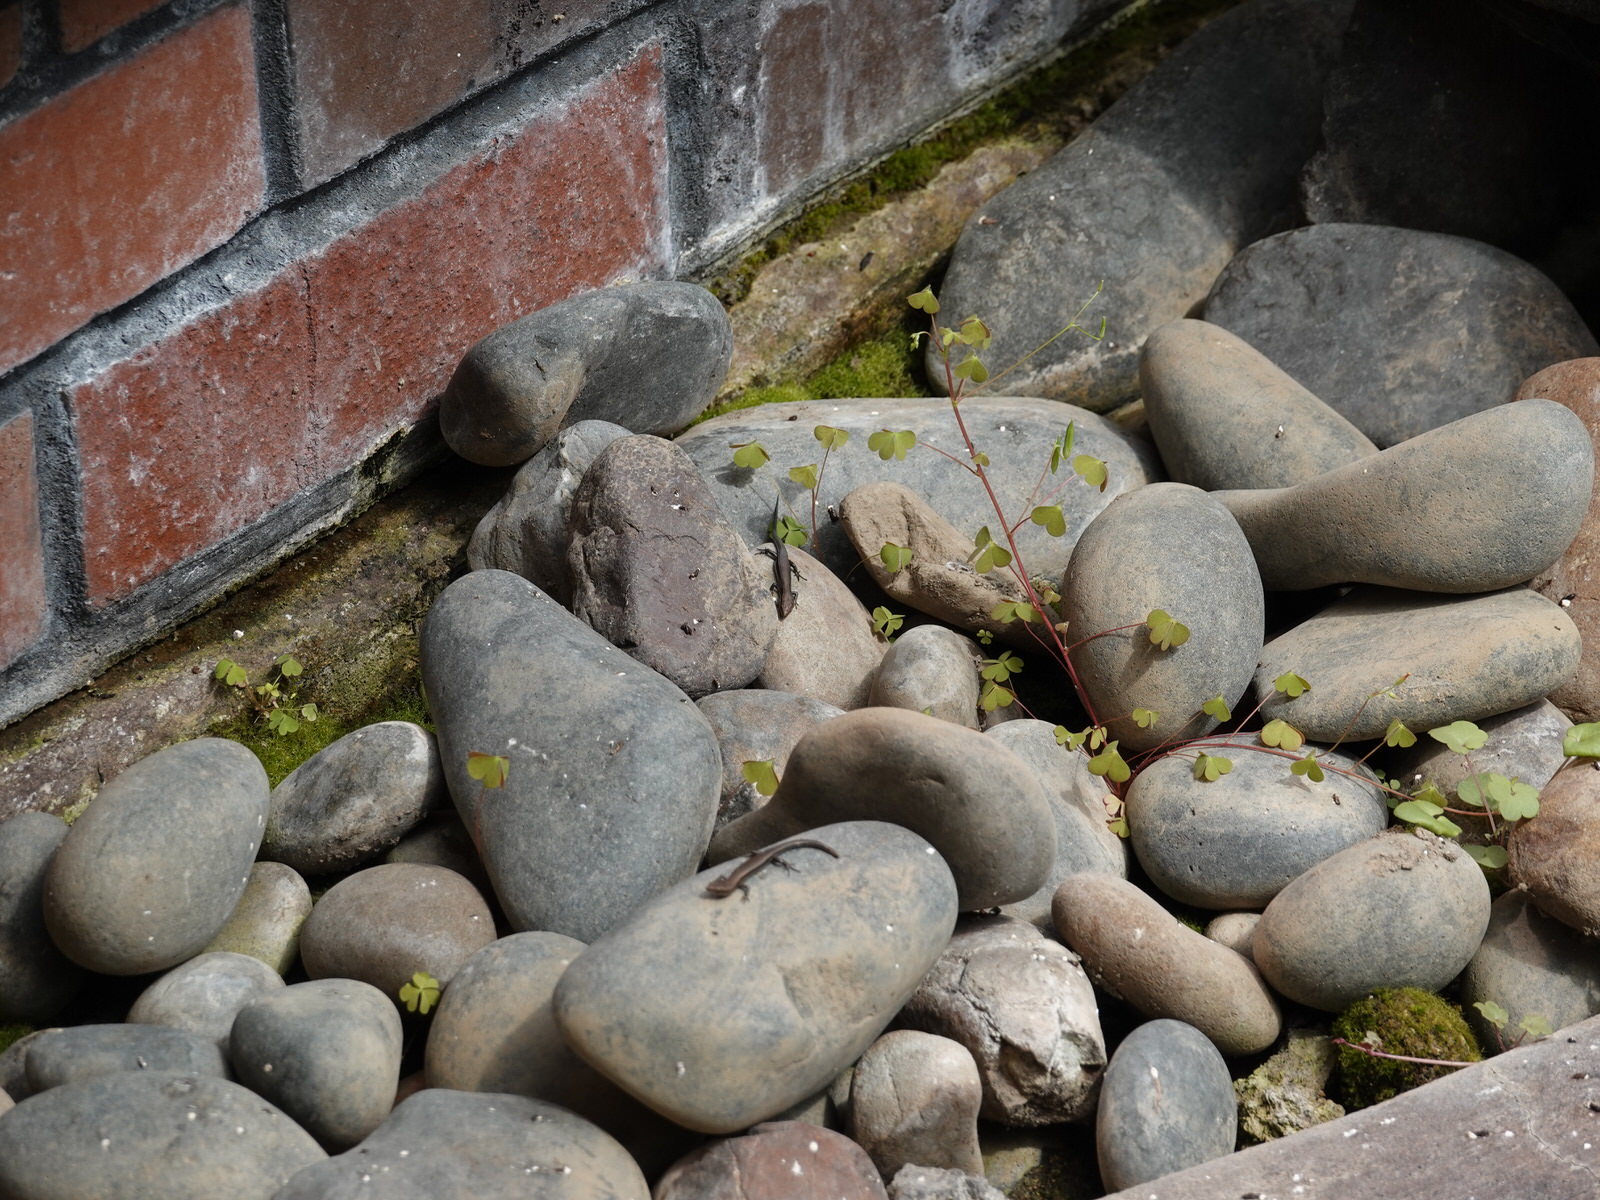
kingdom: Animalia
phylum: Chordata
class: Squamata
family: Scincidae
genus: Lampropholis
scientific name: Lampropholis delicata
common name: Plague skink
